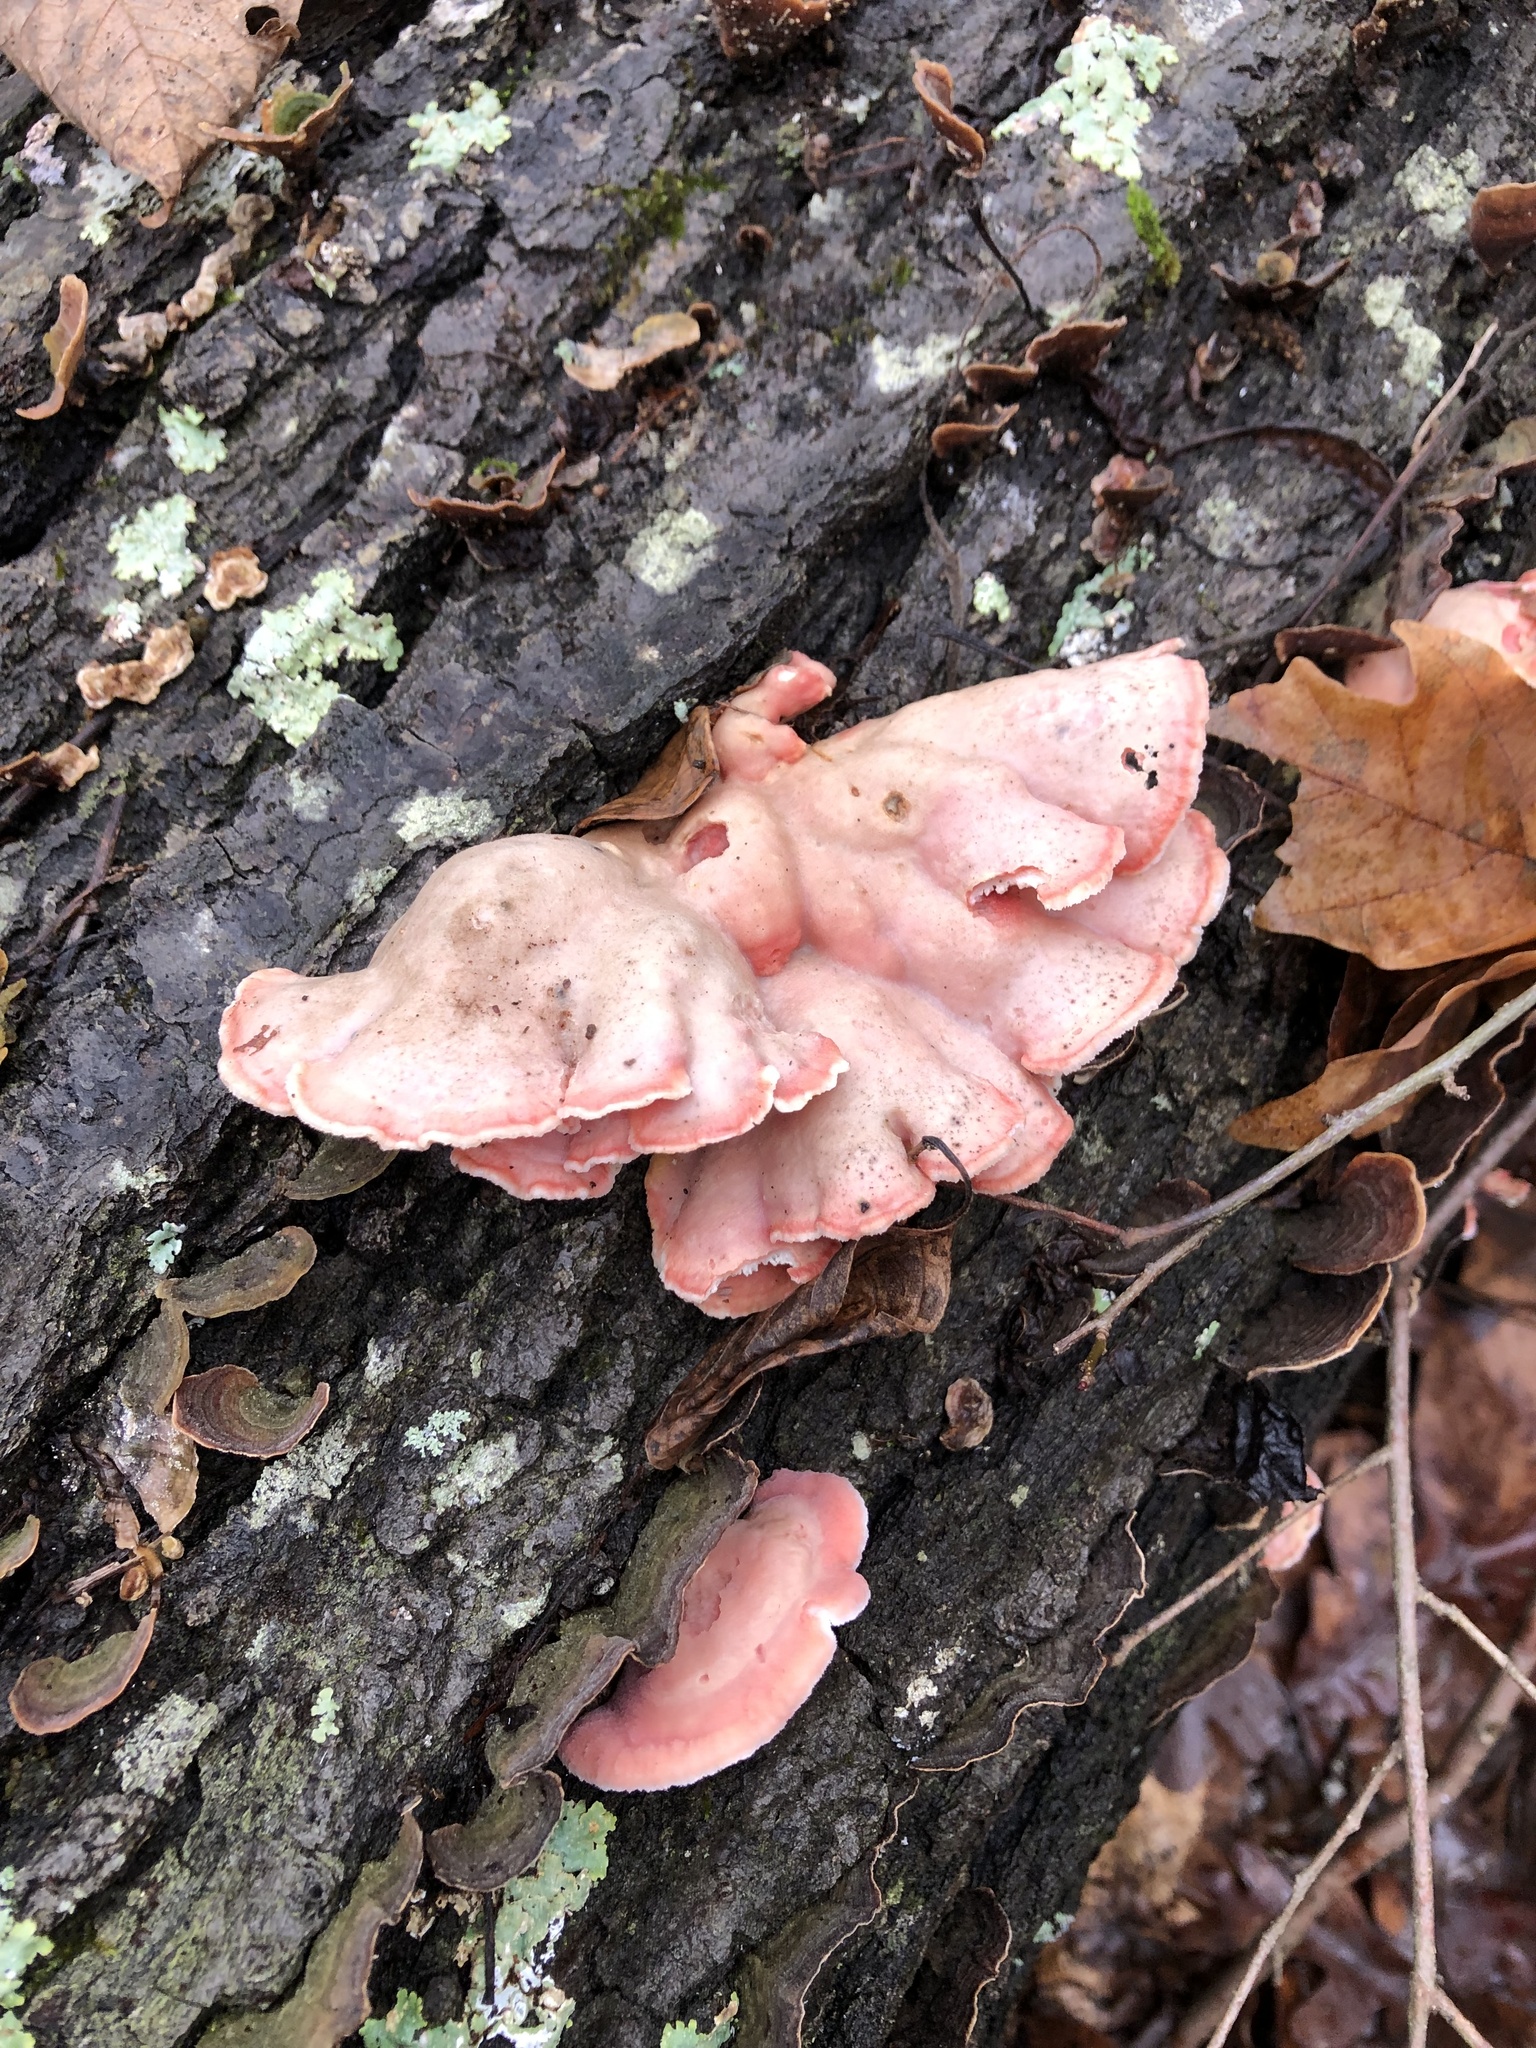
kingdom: Fungi
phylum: Basidiomycota
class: Agaricomycetes
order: Polyporales
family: Irpicaceae
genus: Byssomerulius
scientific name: Byssomerulius incarnatus
